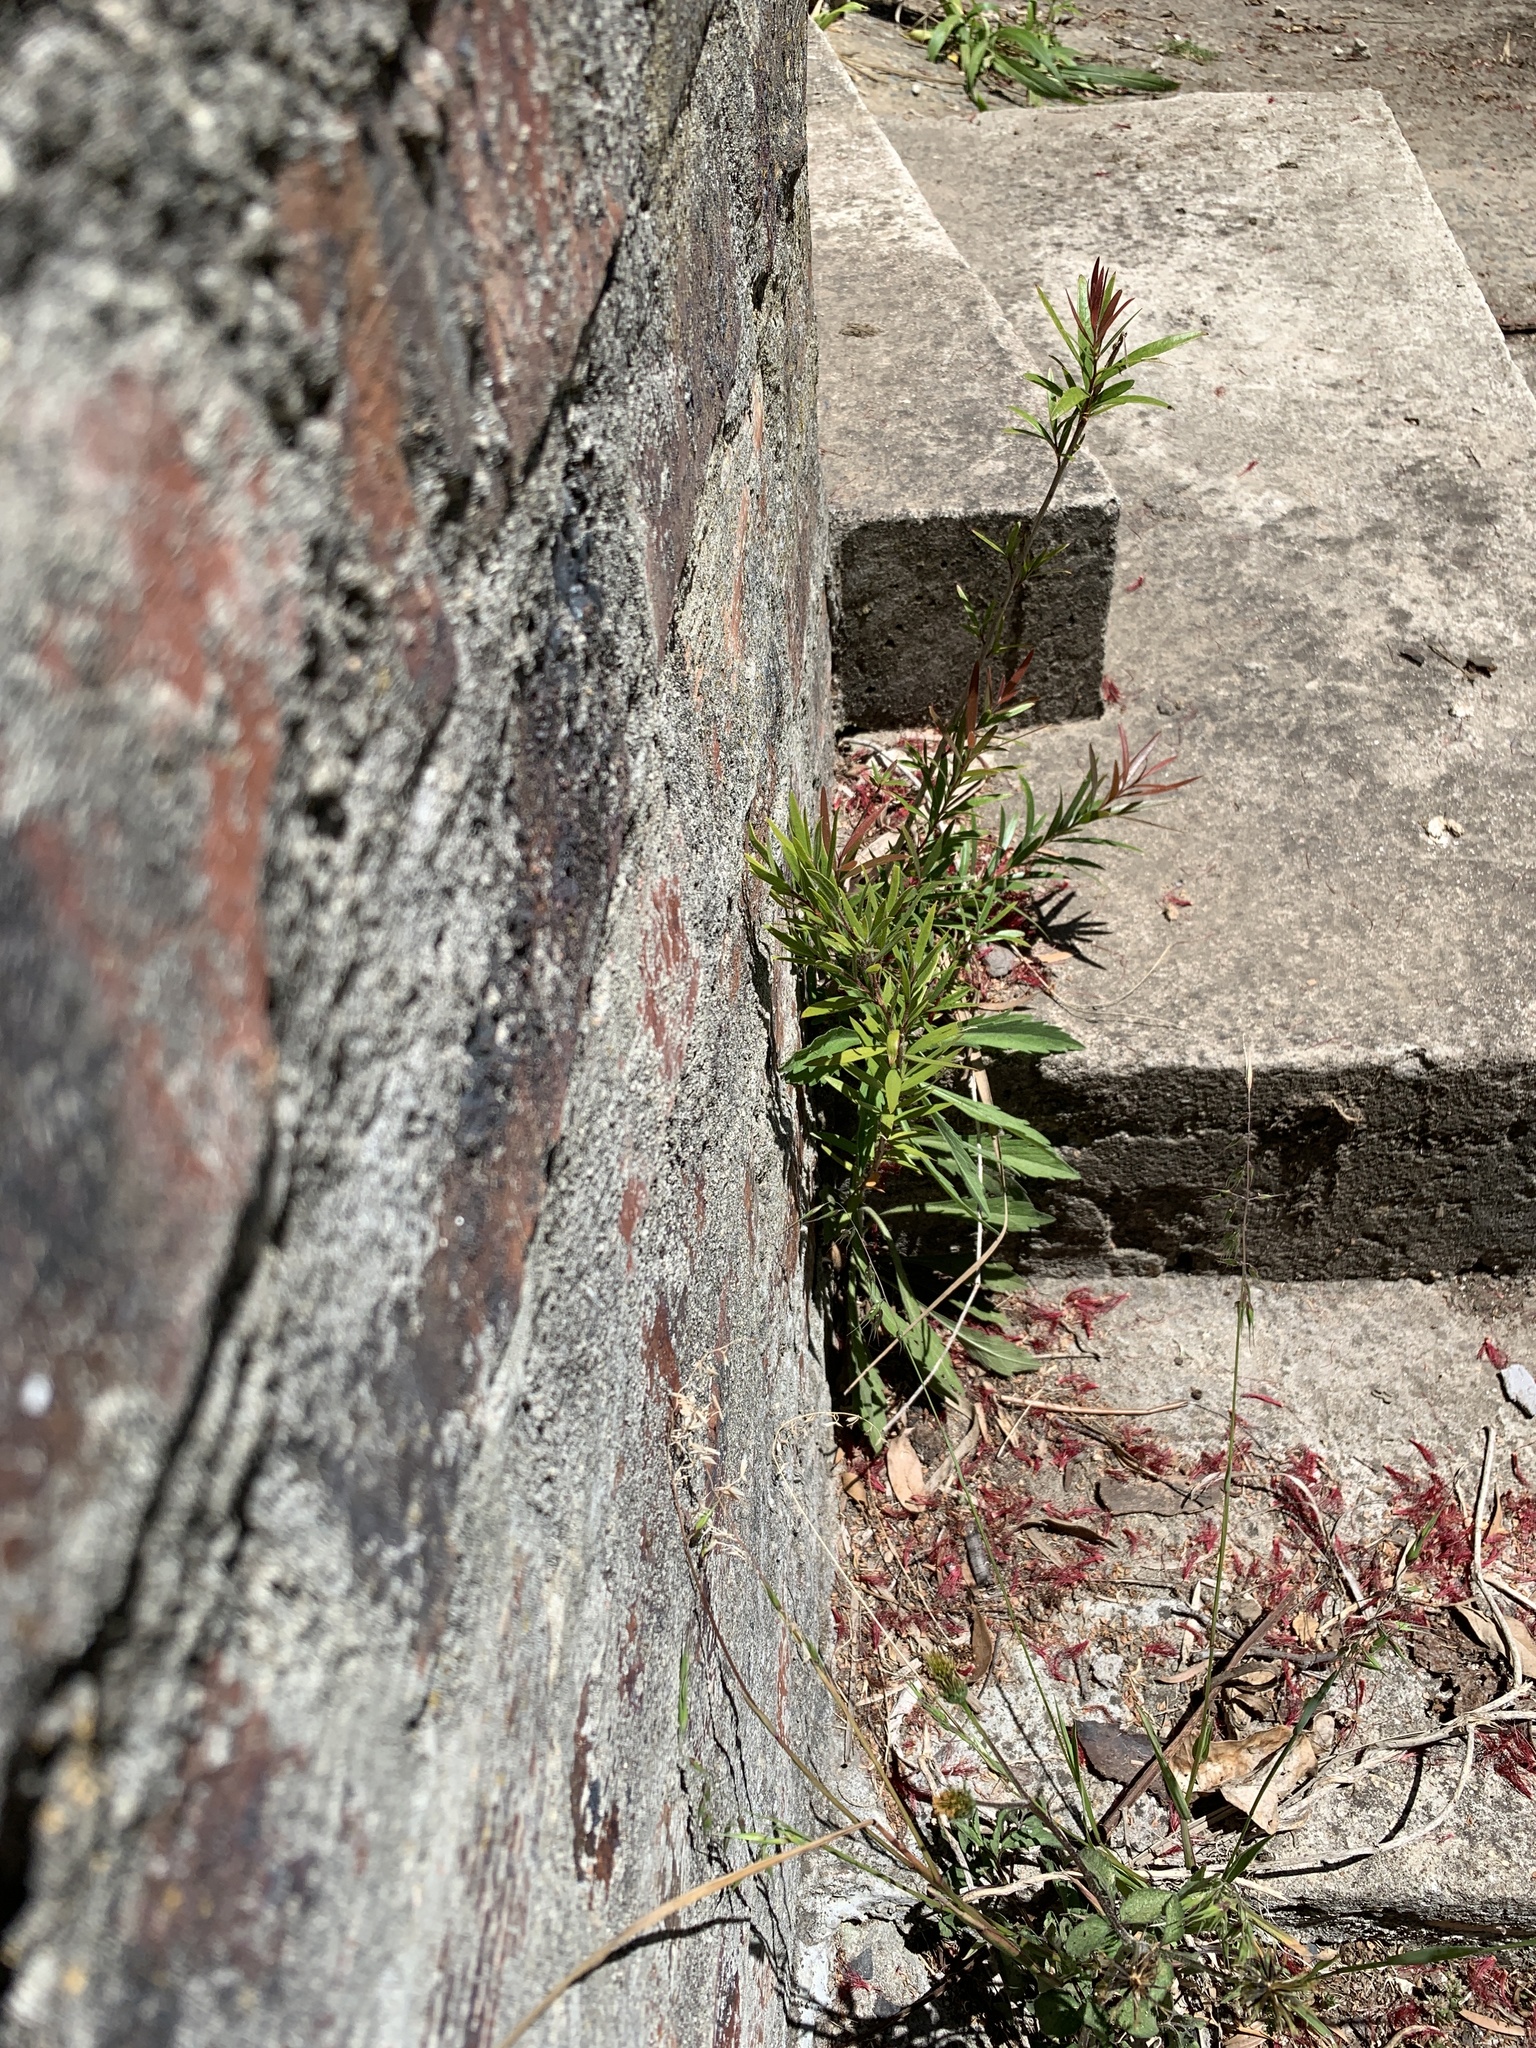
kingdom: Plantae
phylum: Tracheophyta
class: Magnoliopsida
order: Myrtales
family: Myrtaceae
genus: Callistemon
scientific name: Callistemon viminalis
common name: Drooping bottlebrush
